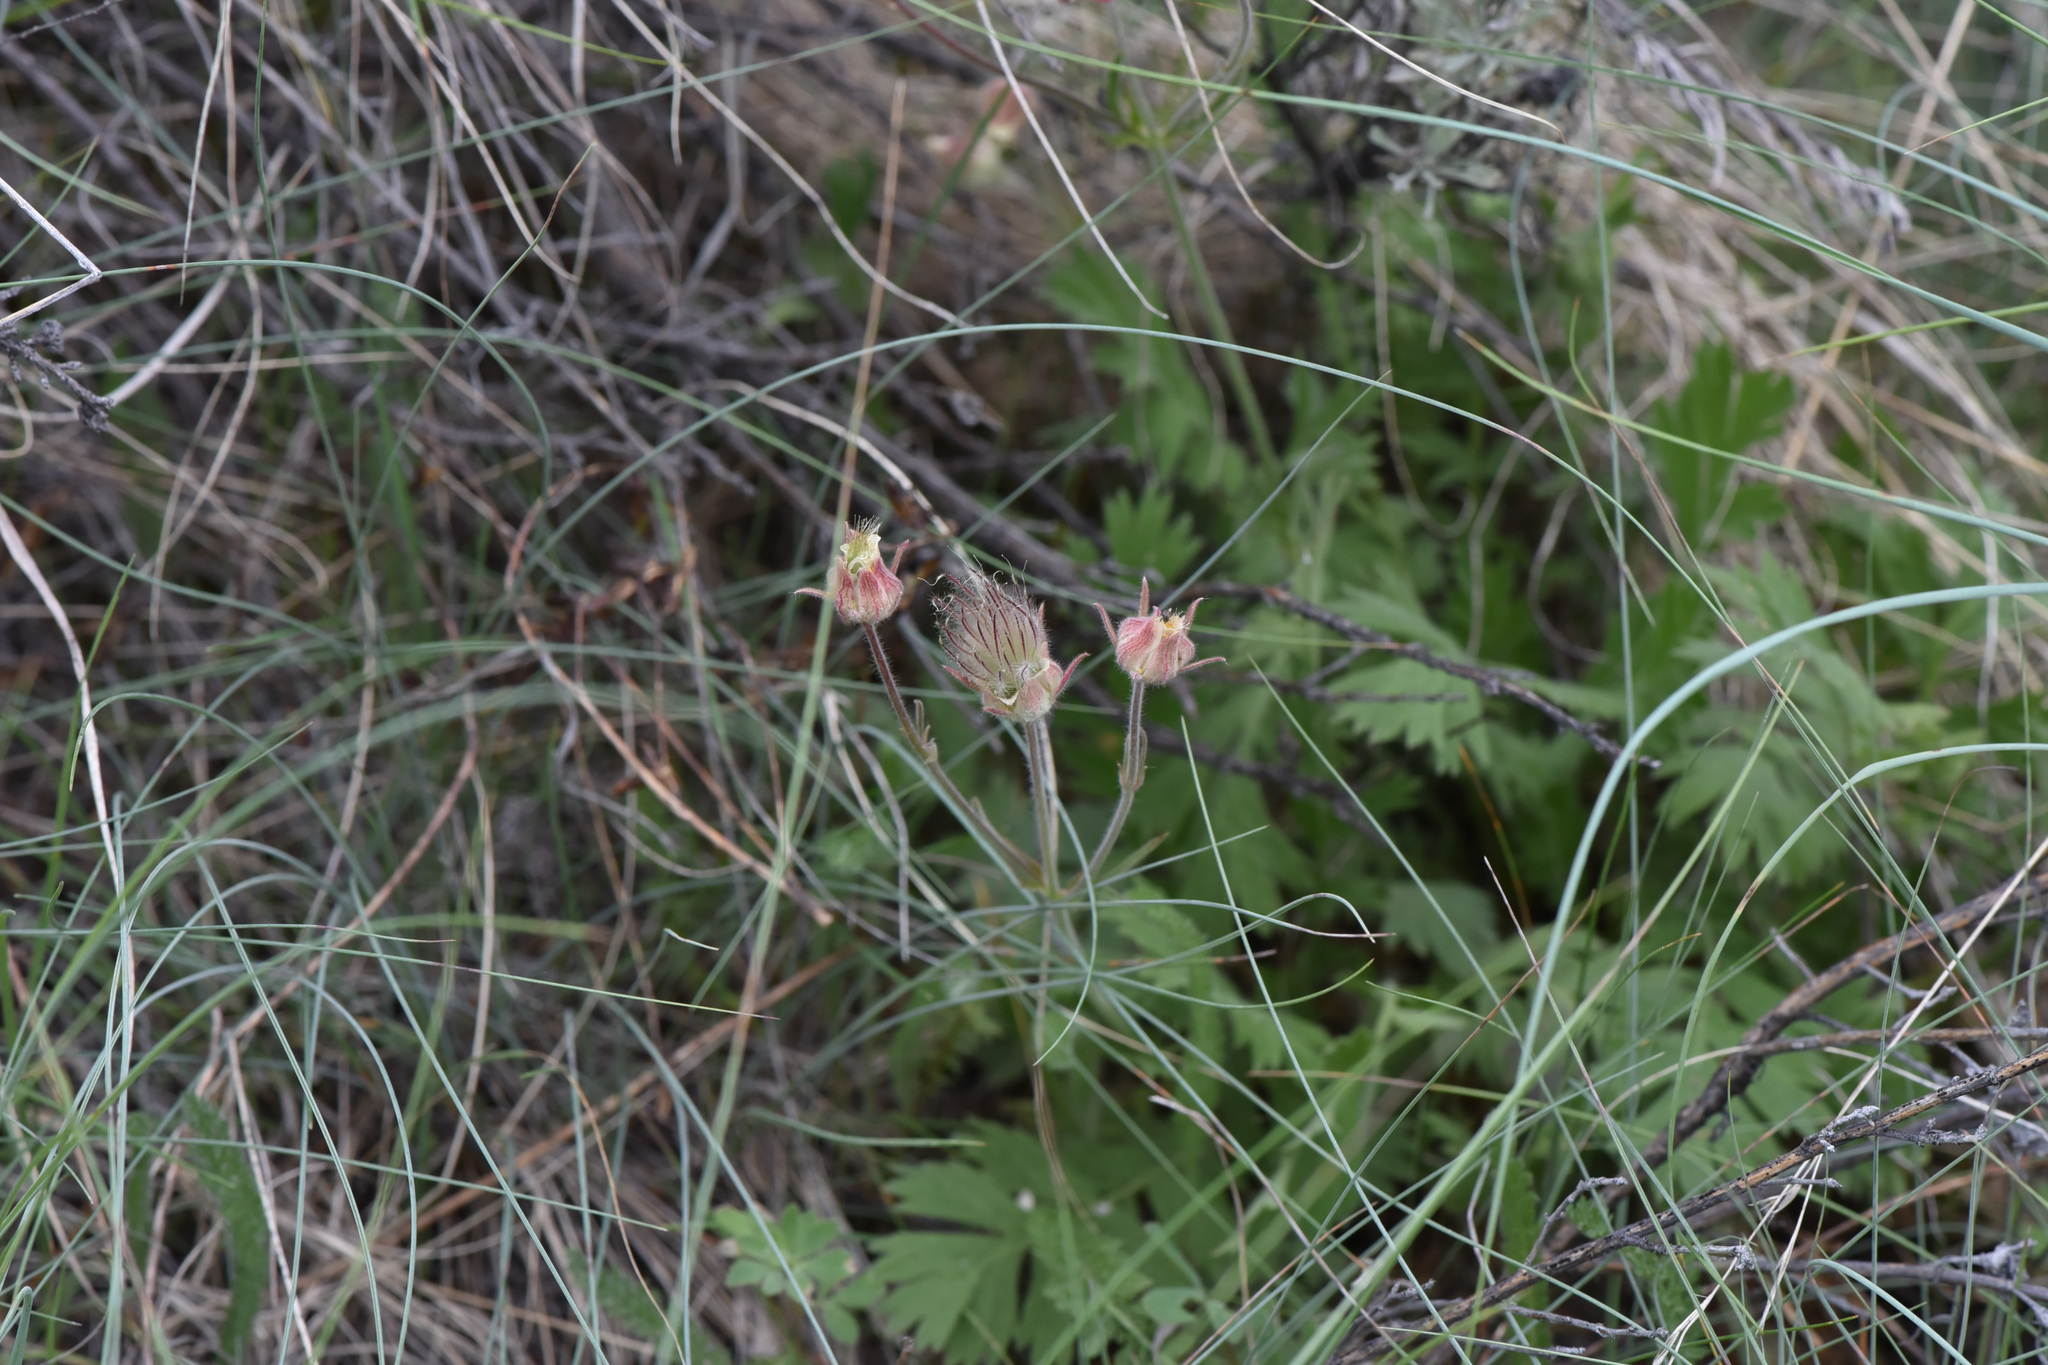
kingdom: Plantae
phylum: Tracheophyta
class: Magnoliopsida
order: Rosales
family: Rosaceae
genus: Geum
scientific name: Geum triflorum
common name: Old man's whiskers
